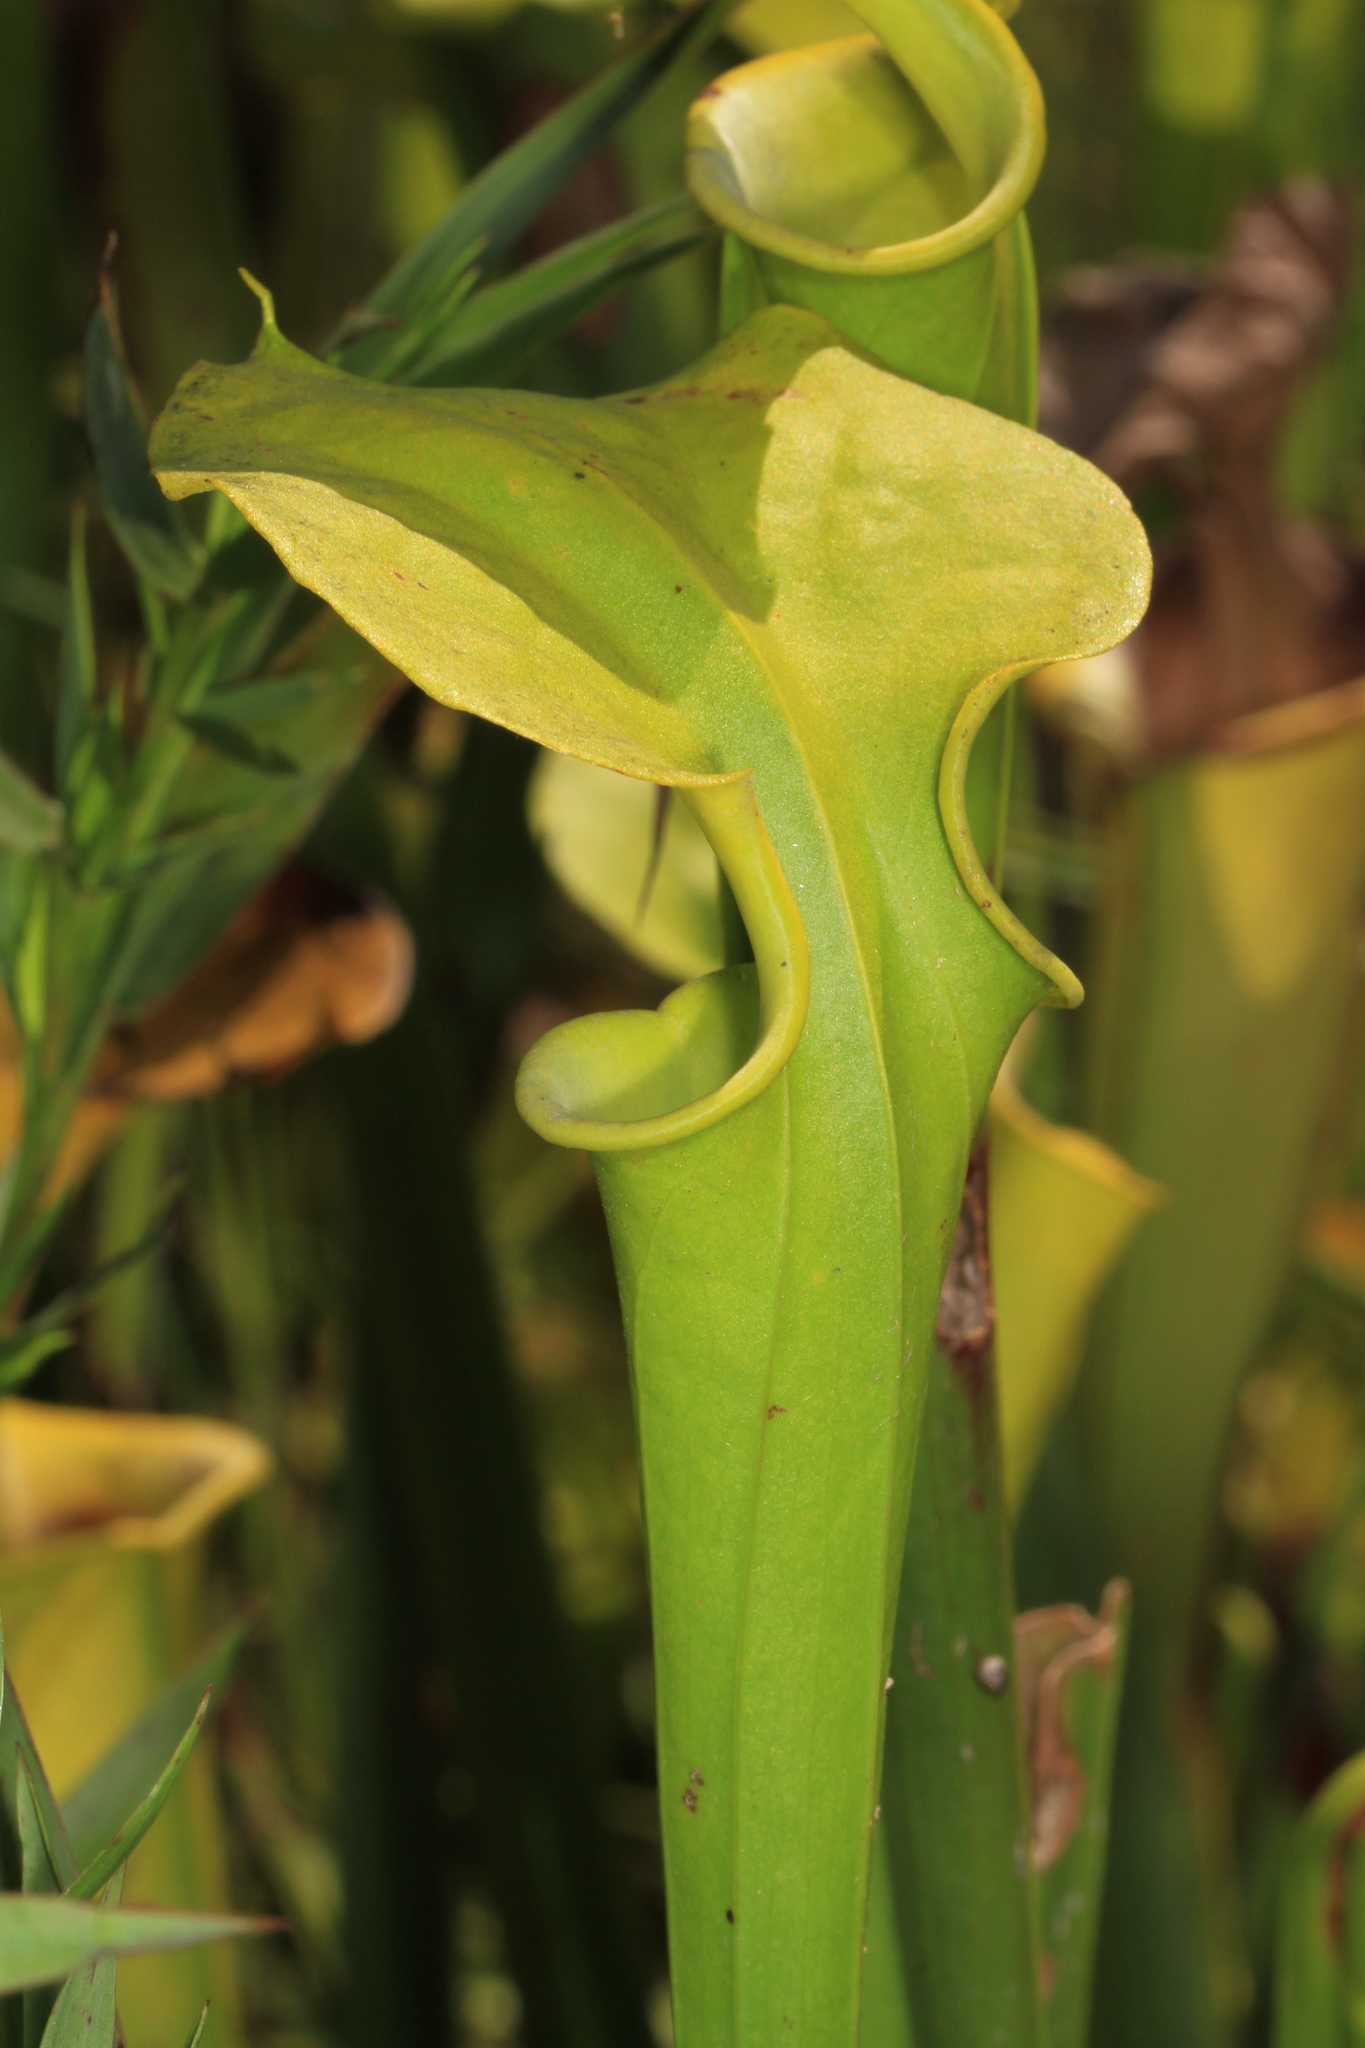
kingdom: Plantae
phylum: Tracheophyta
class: Magnoliopsida
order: Ericales
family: Sarraceniaceae
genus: Sarracenia
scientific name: Sarracenia flava
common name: Trumpets
